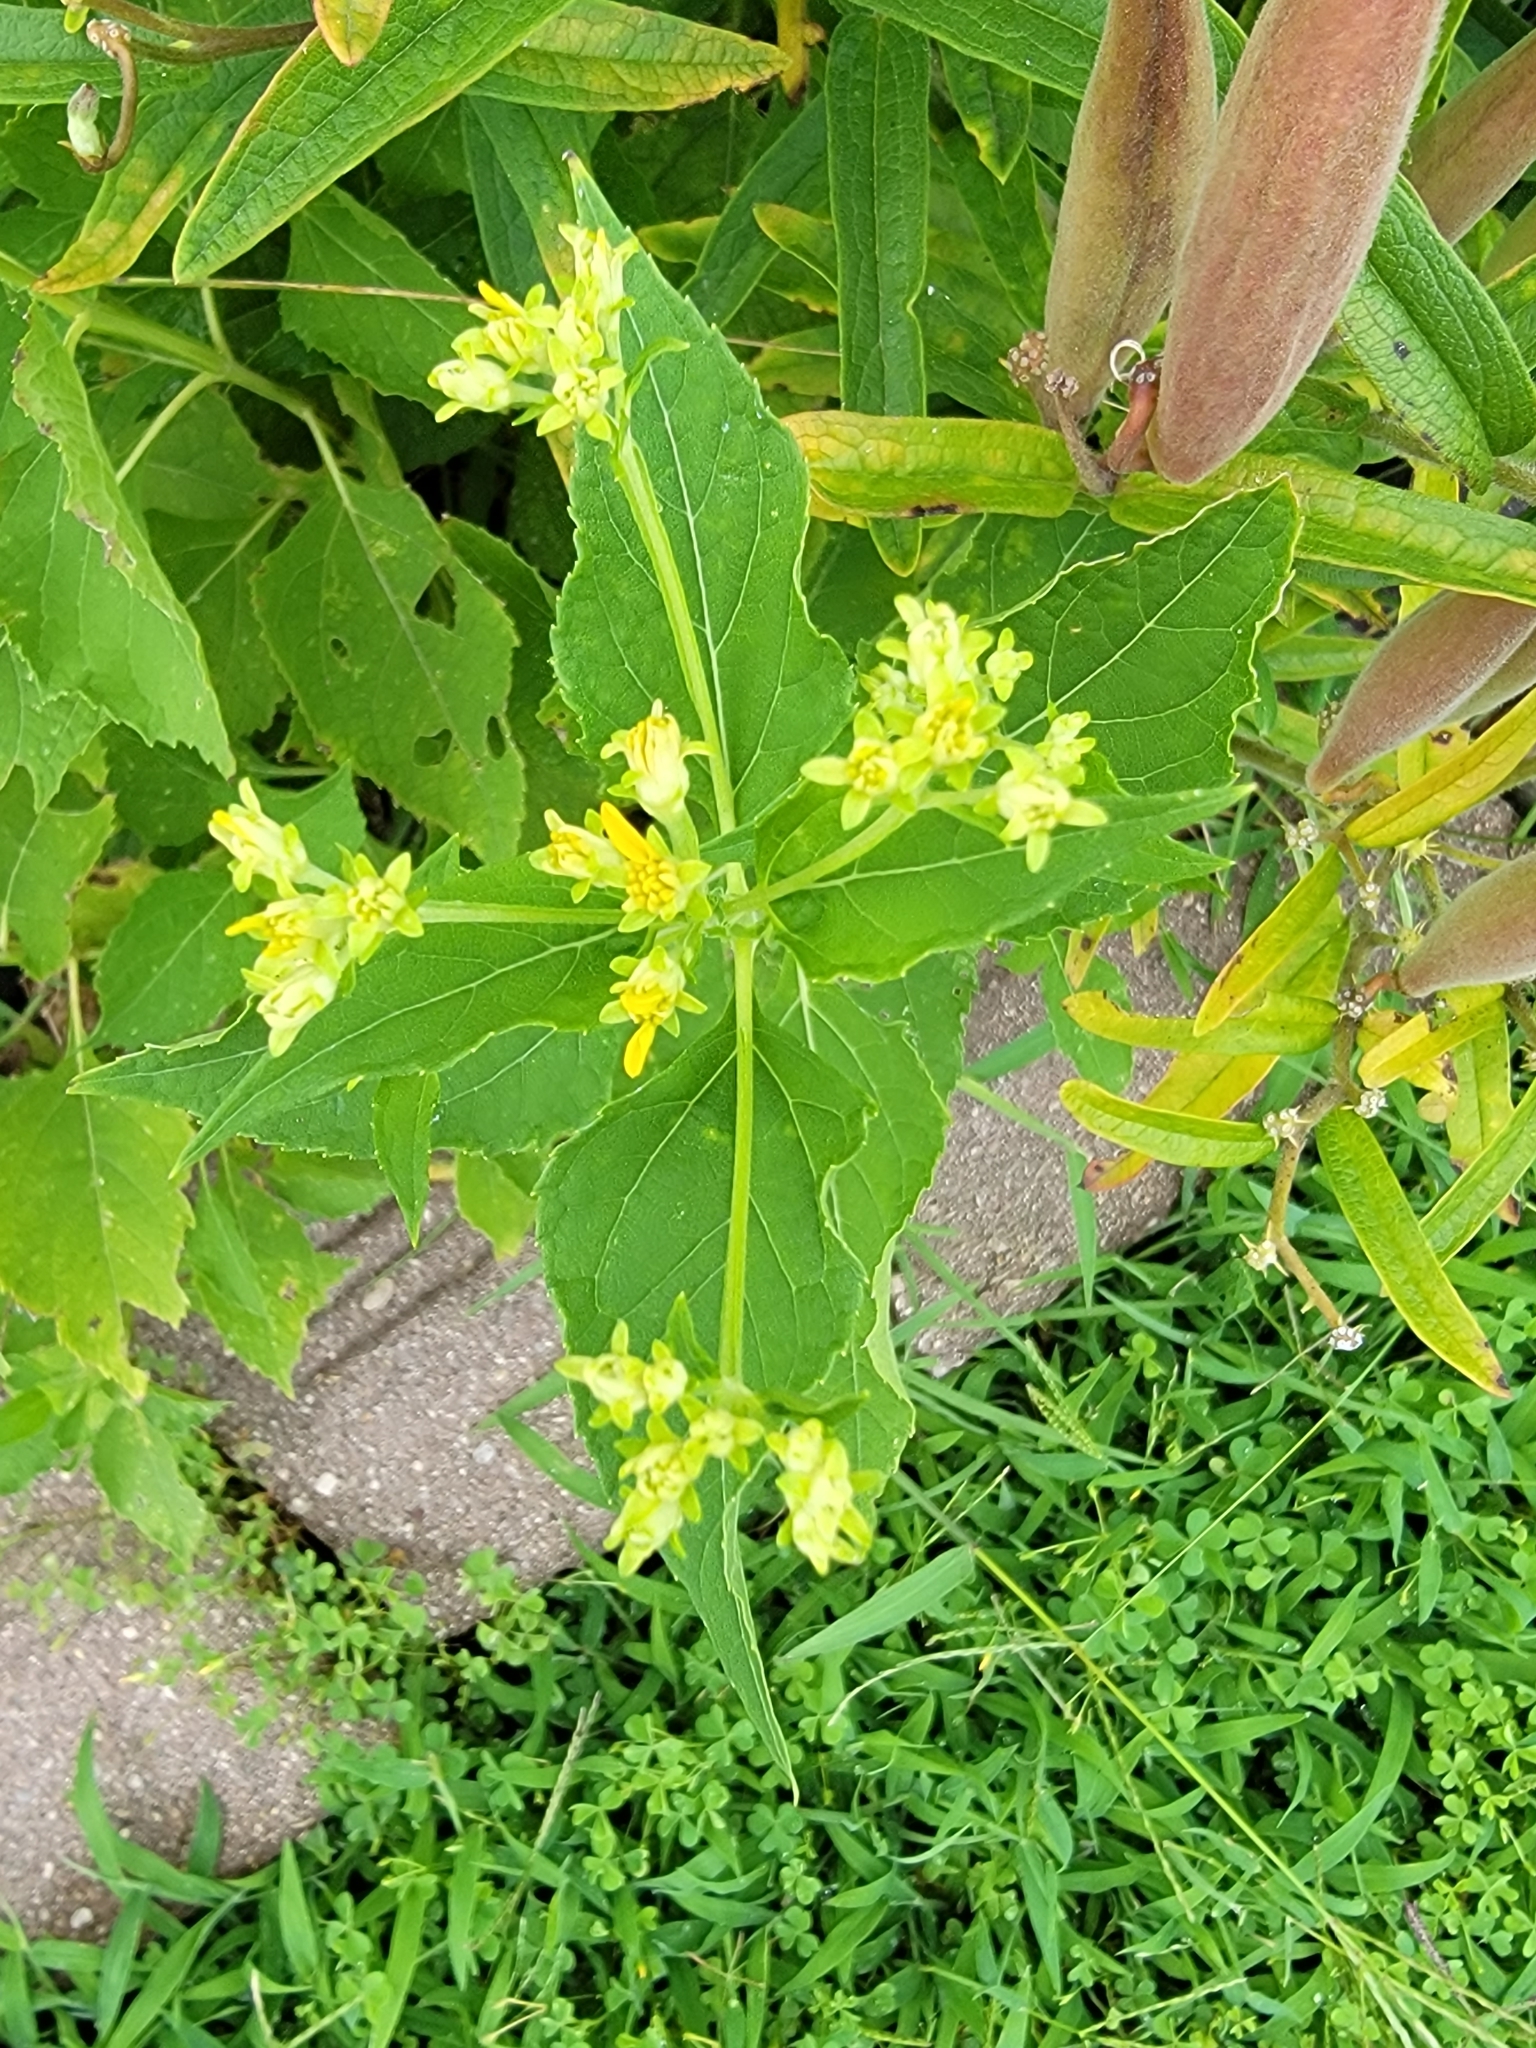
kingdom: Plantae
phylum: Tracheophyta
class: Magnoliopsida
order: Asterales
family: Asteraceae
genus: Verbesina
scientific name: Verbesina occidentalis
